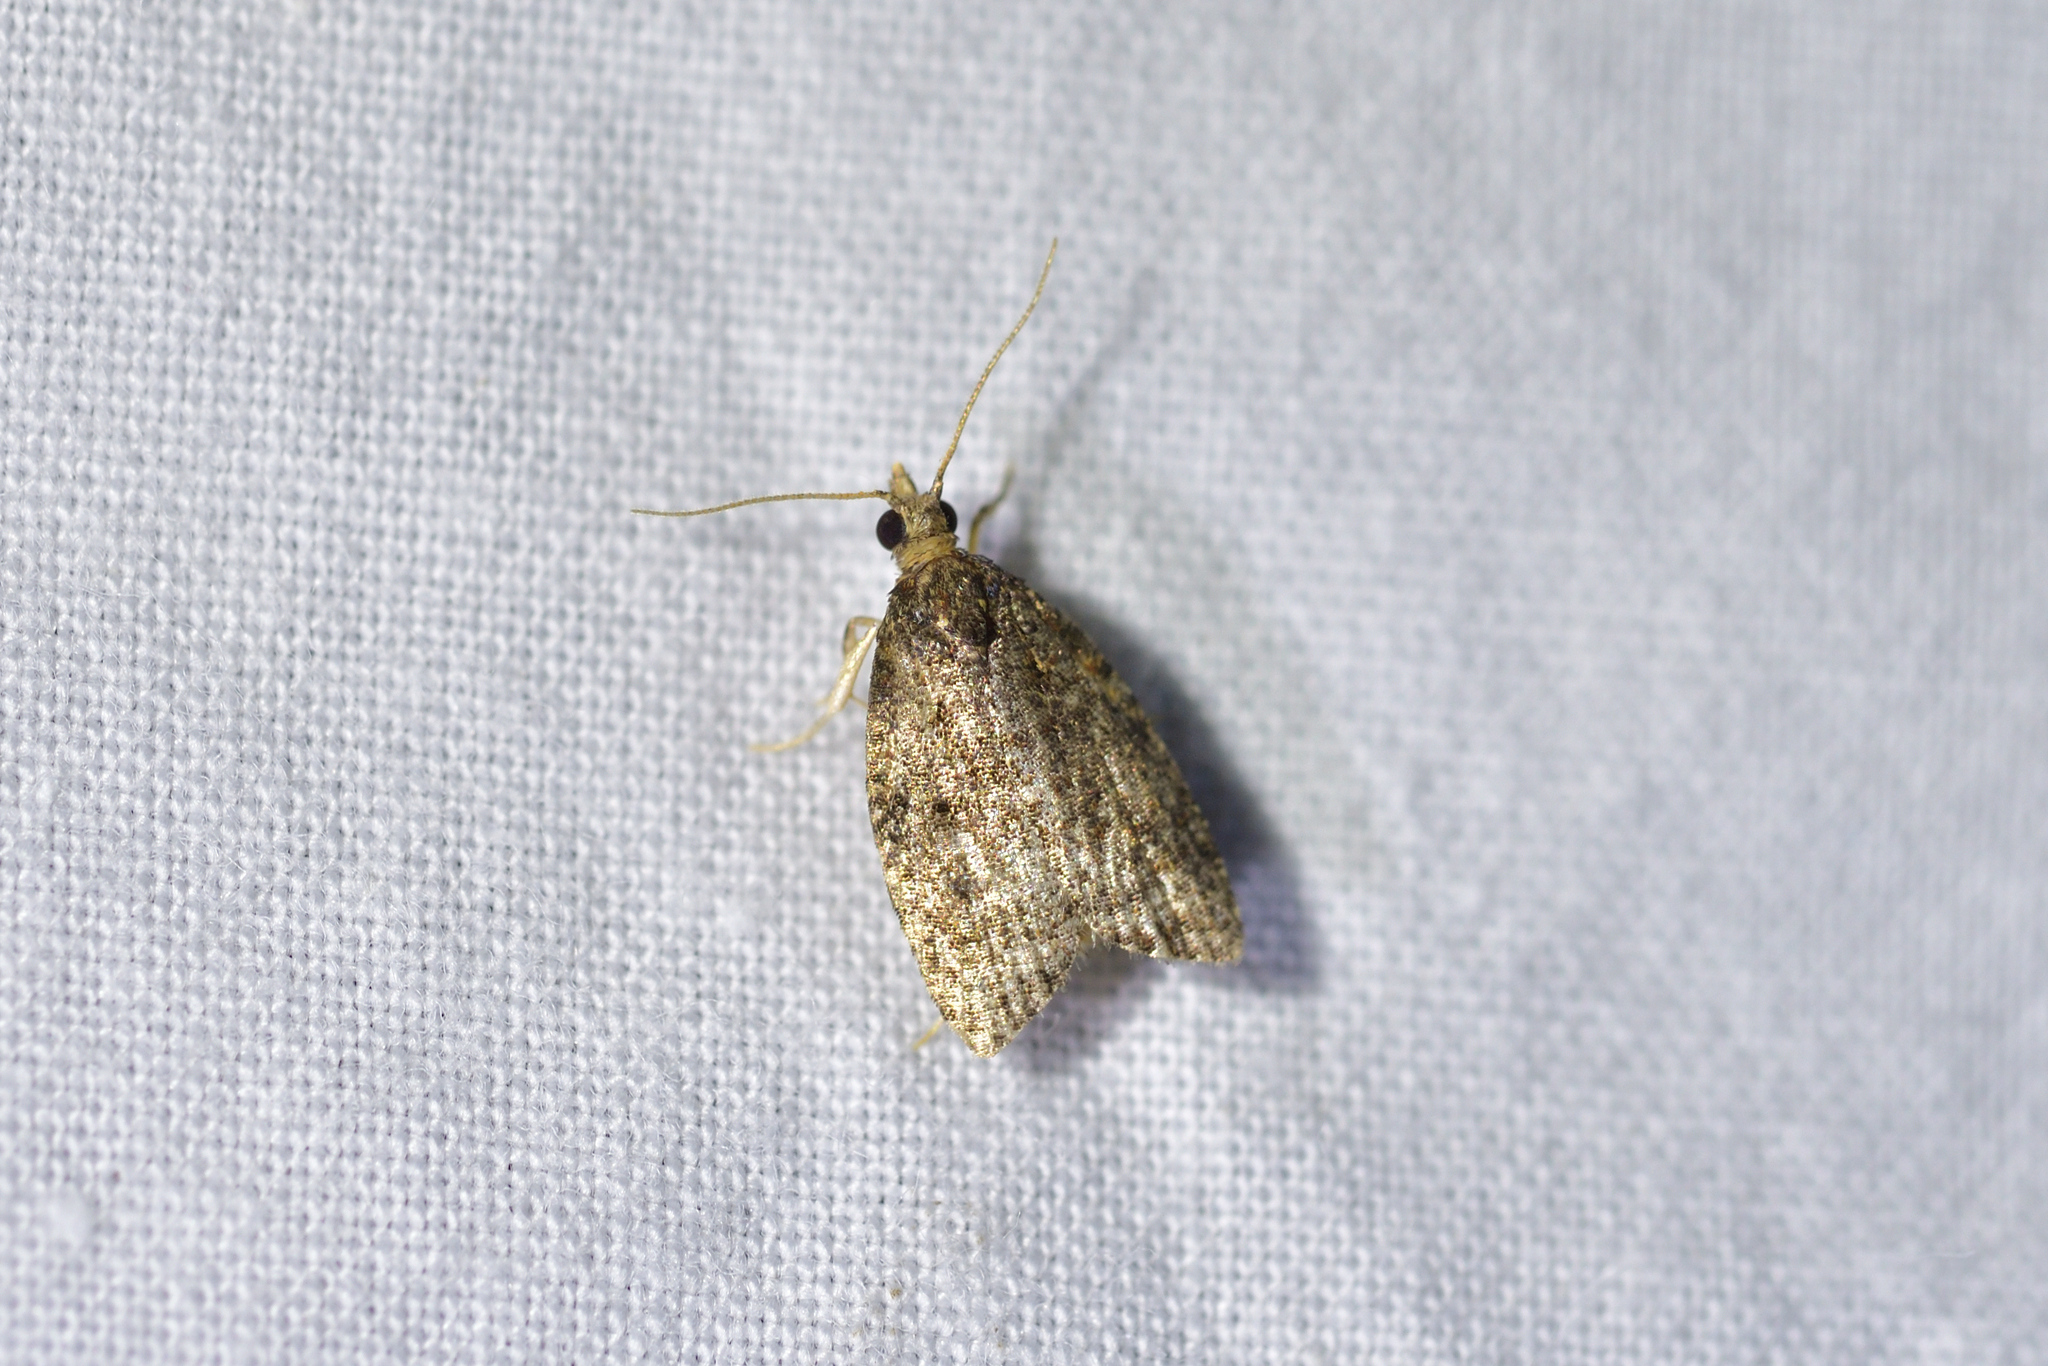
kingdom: Animalia
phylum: Arthropoda
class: Insecta
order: Lepidoptera
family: Tortricidae
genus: Capua
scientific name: Capua intractana
